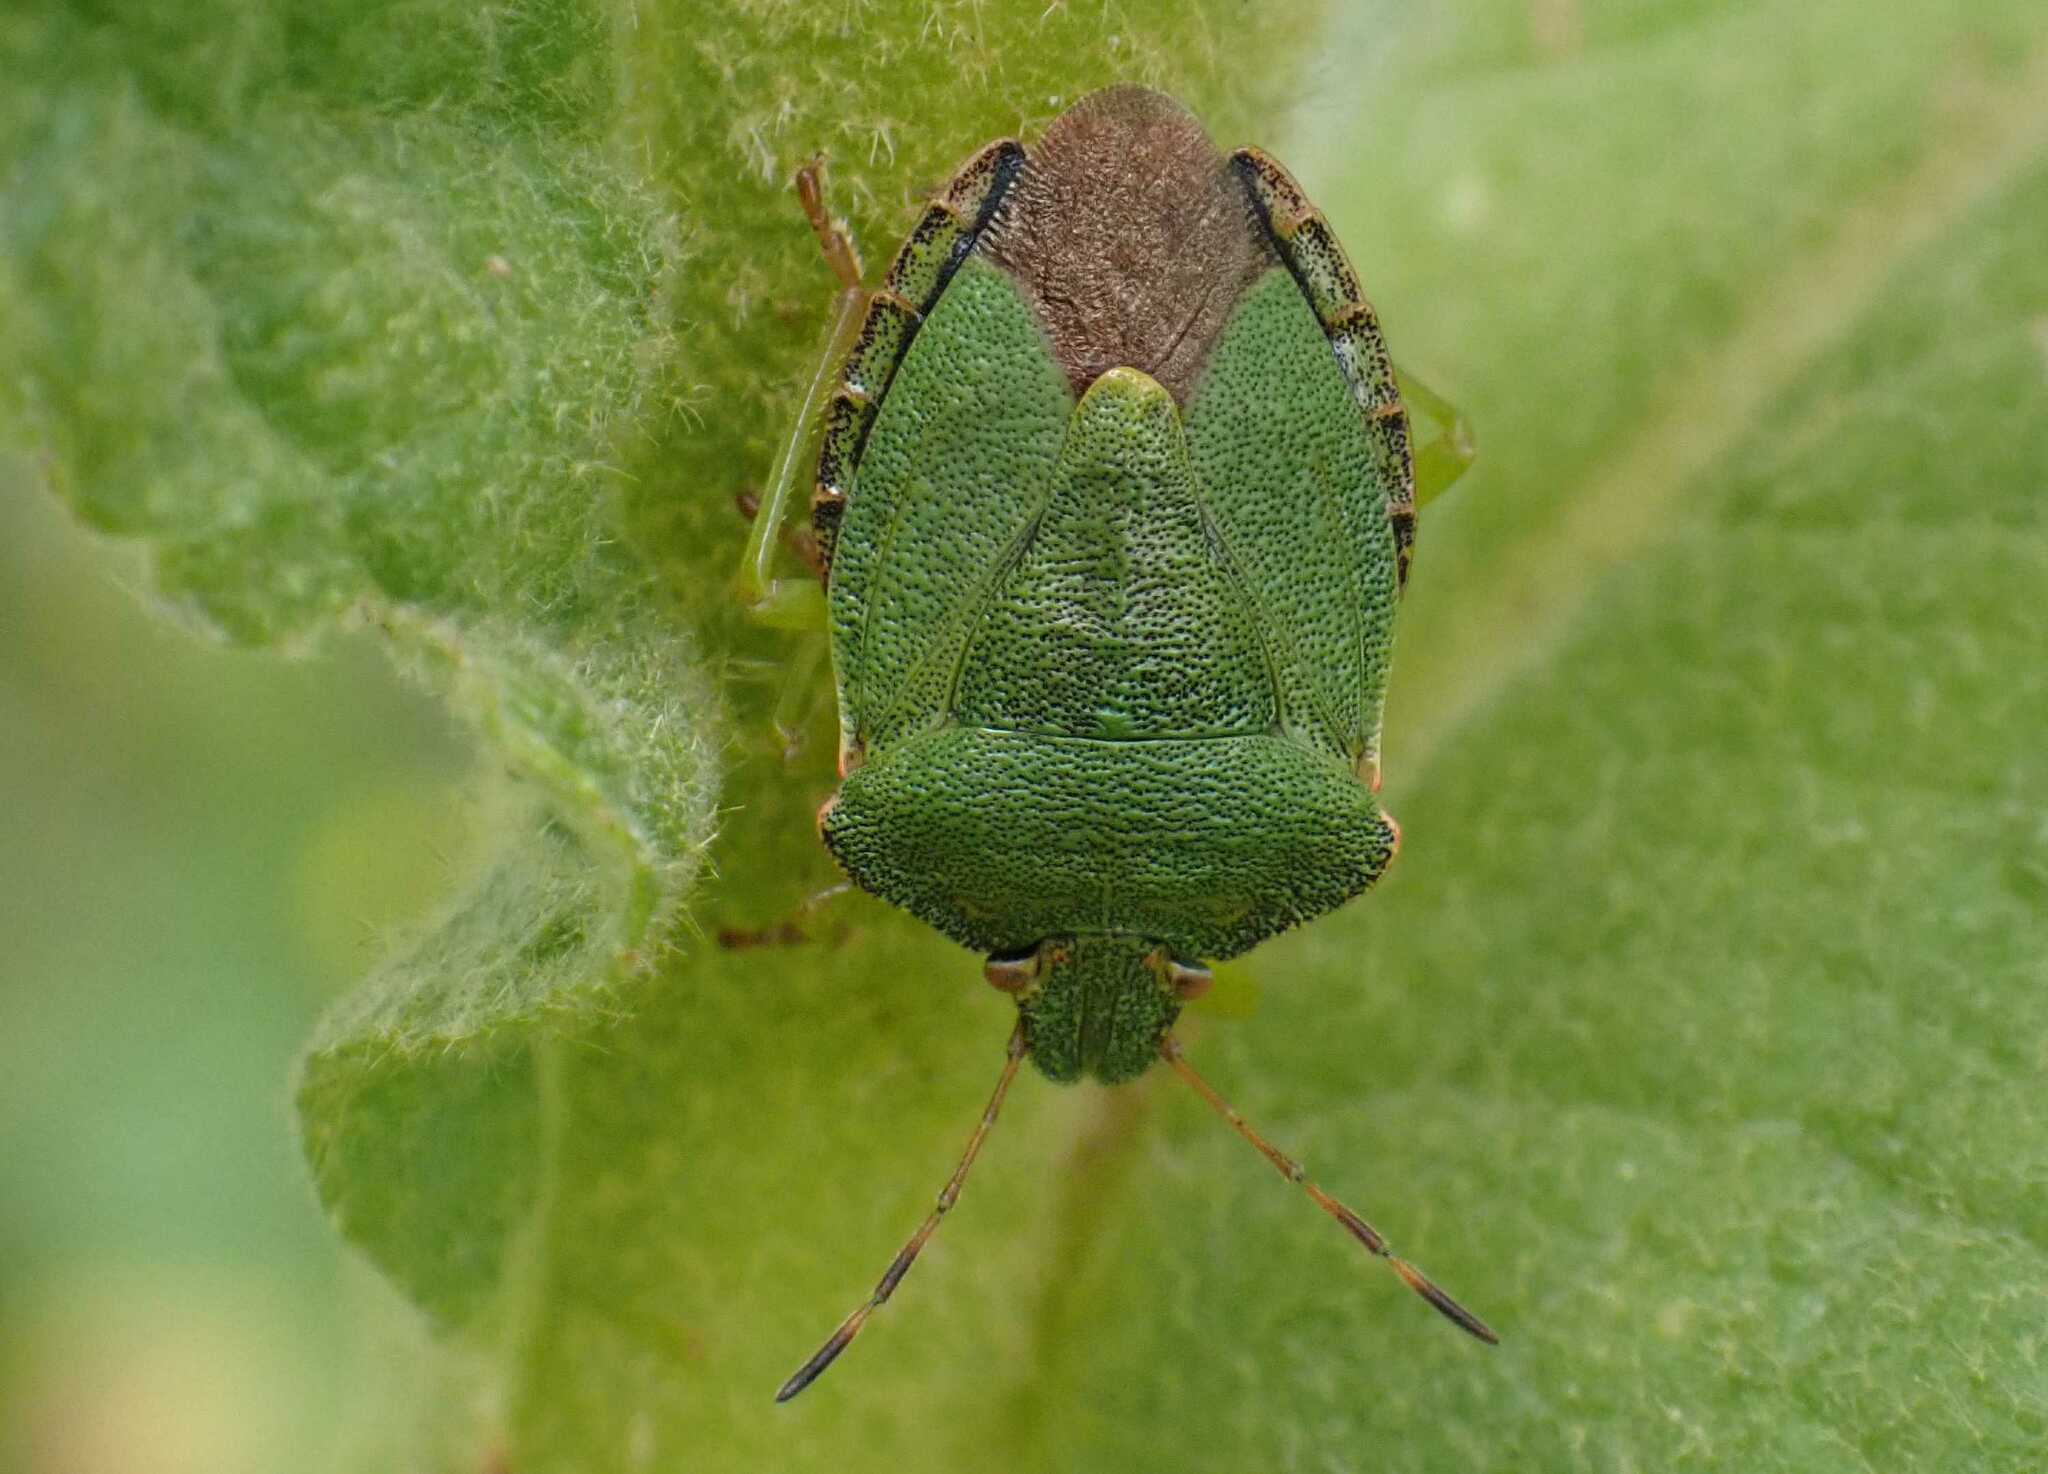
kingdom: Animalia
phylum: Arthropoda
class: Insecta
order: Hemiptera
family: Pentatomidae
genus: Palomena
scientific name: Palomena prasina
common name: Green shieldbug
